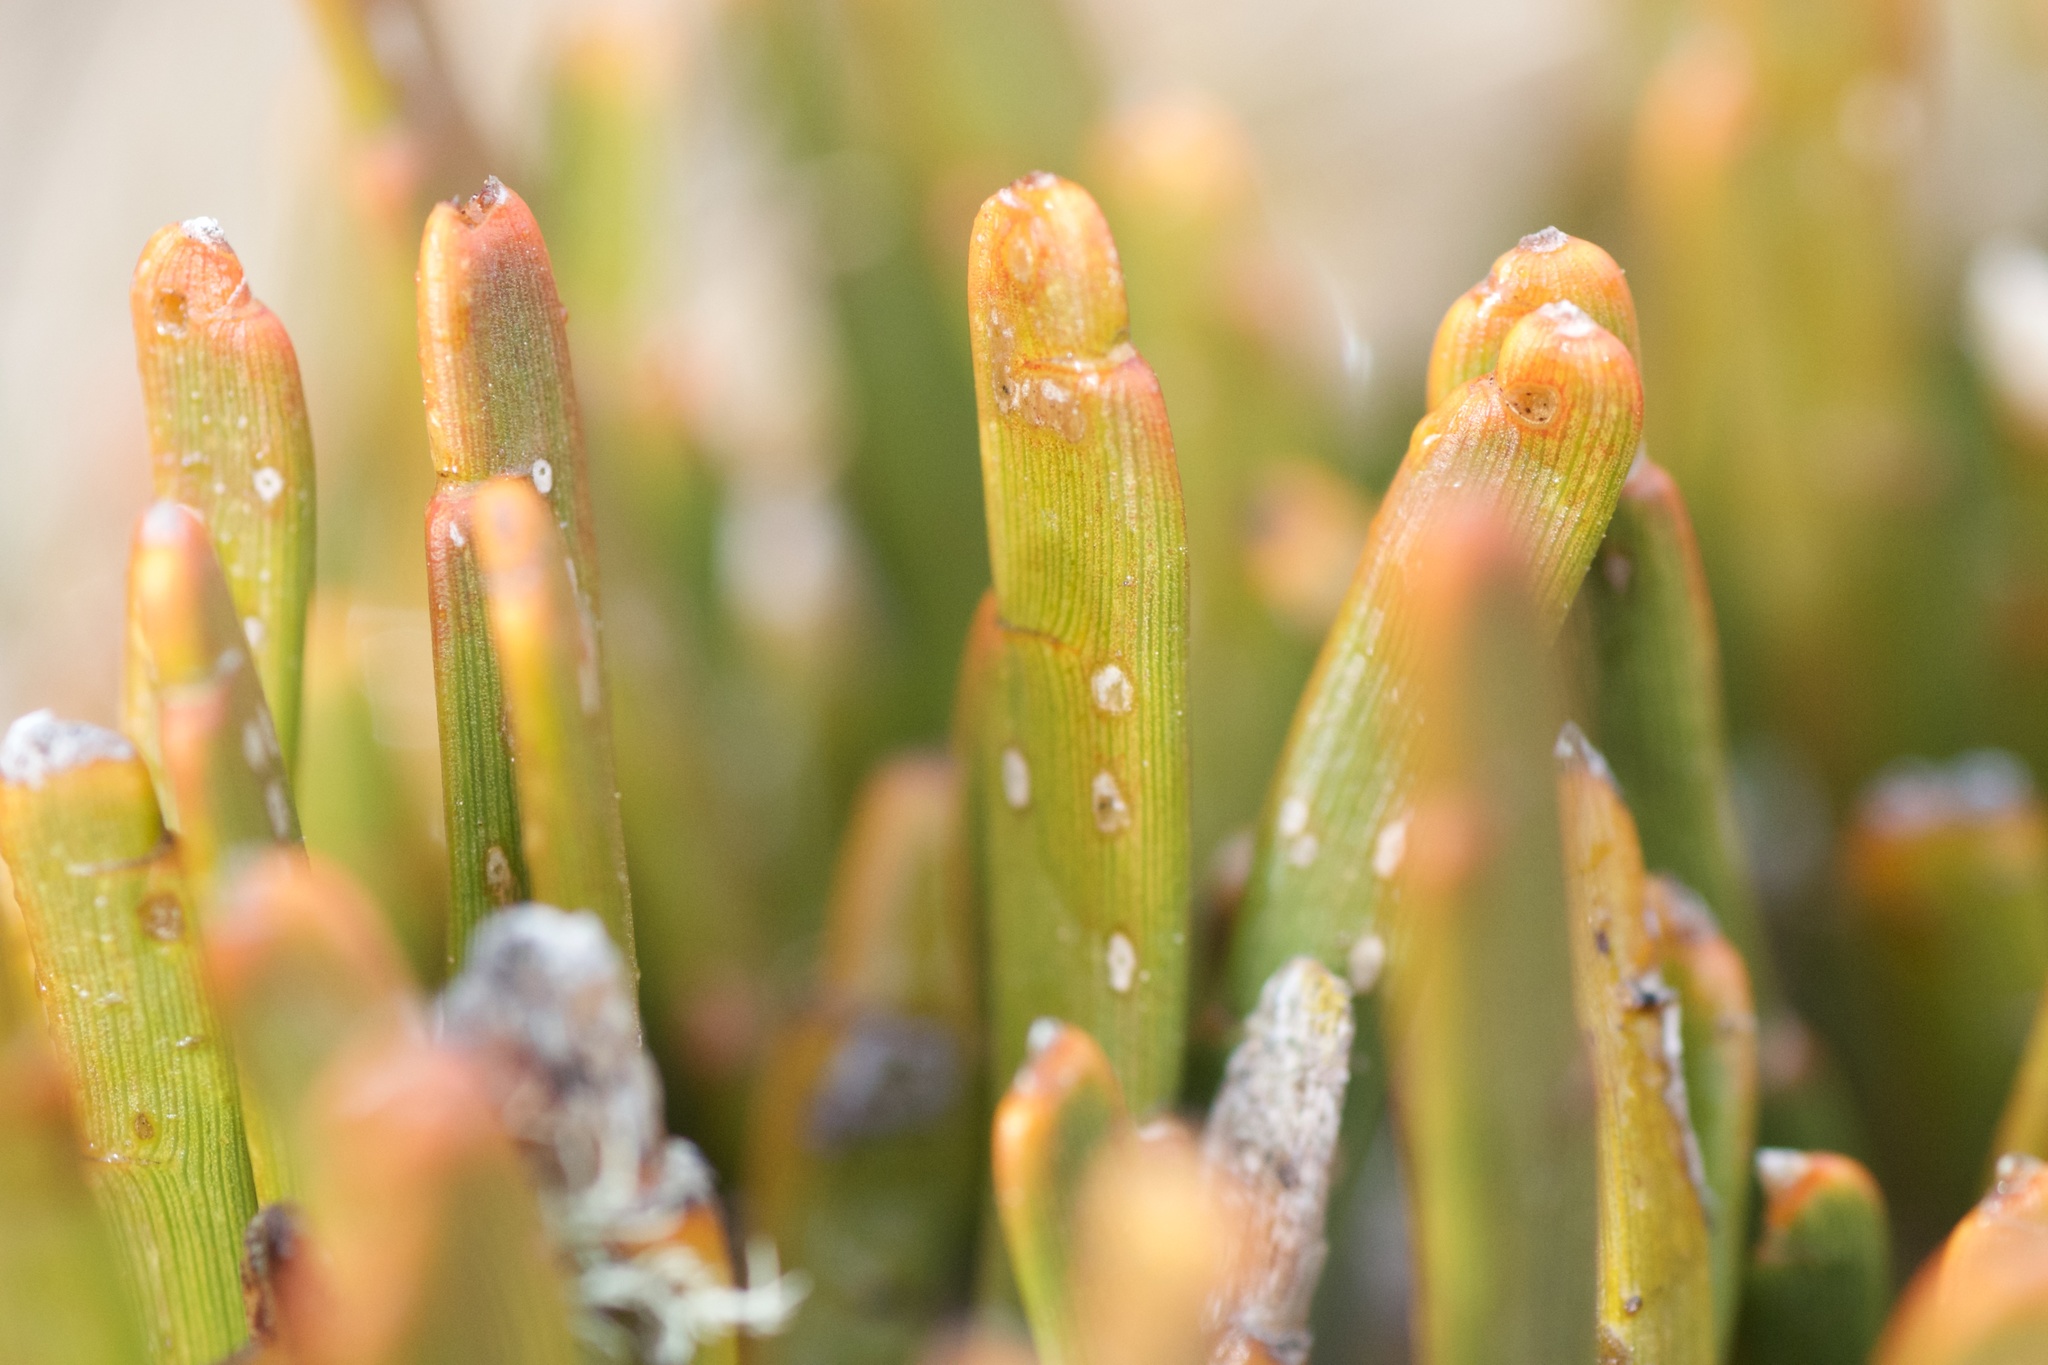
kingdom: Plantae
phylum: Tracheophyta
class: Magnoliopsida
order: Fabales
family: Fabaceae
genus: Carmichaelia
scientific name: Carmichaelia monroi
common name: Stout dwarf broom
